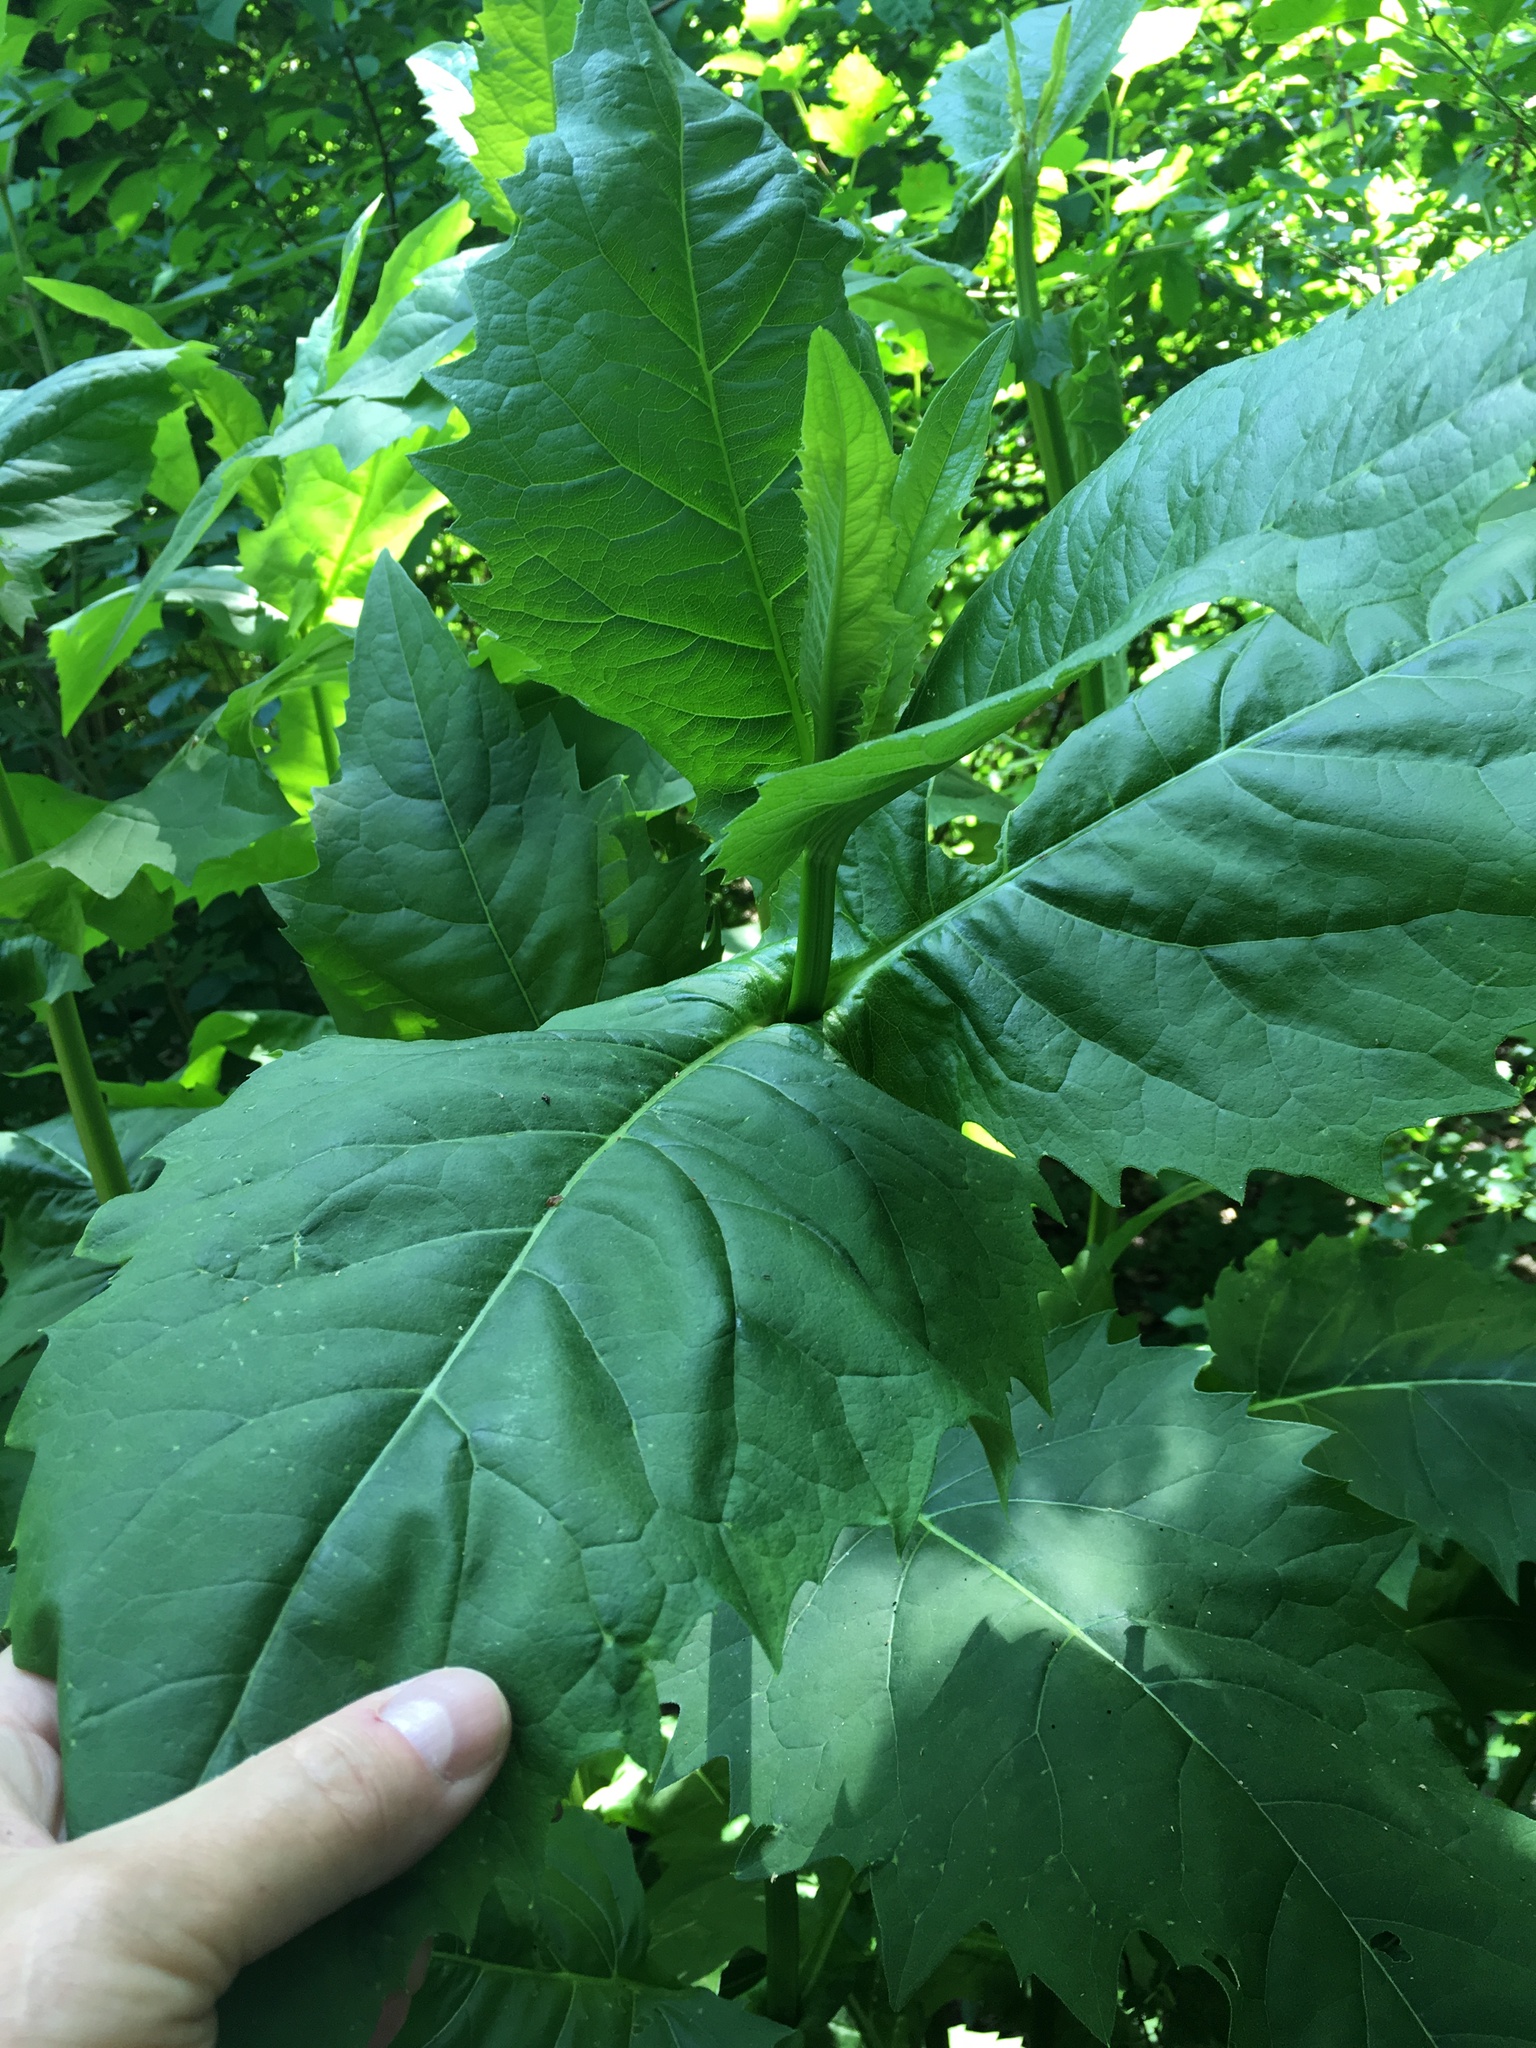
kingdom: Plantae
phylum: Tracheophyta
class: Magnoliopsida
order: Asterales
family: Asteraceae
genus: Silphium
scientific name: Silphium perfoliatum
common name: Cup-plant
